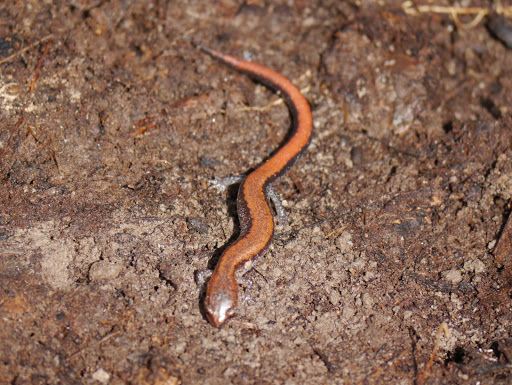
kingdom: Animalia
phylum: Chordata
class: Amphibia
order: Caudata
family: Plethodontidae
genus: Plethodon
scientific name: Plethodon cinereus
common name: Redback salamander
